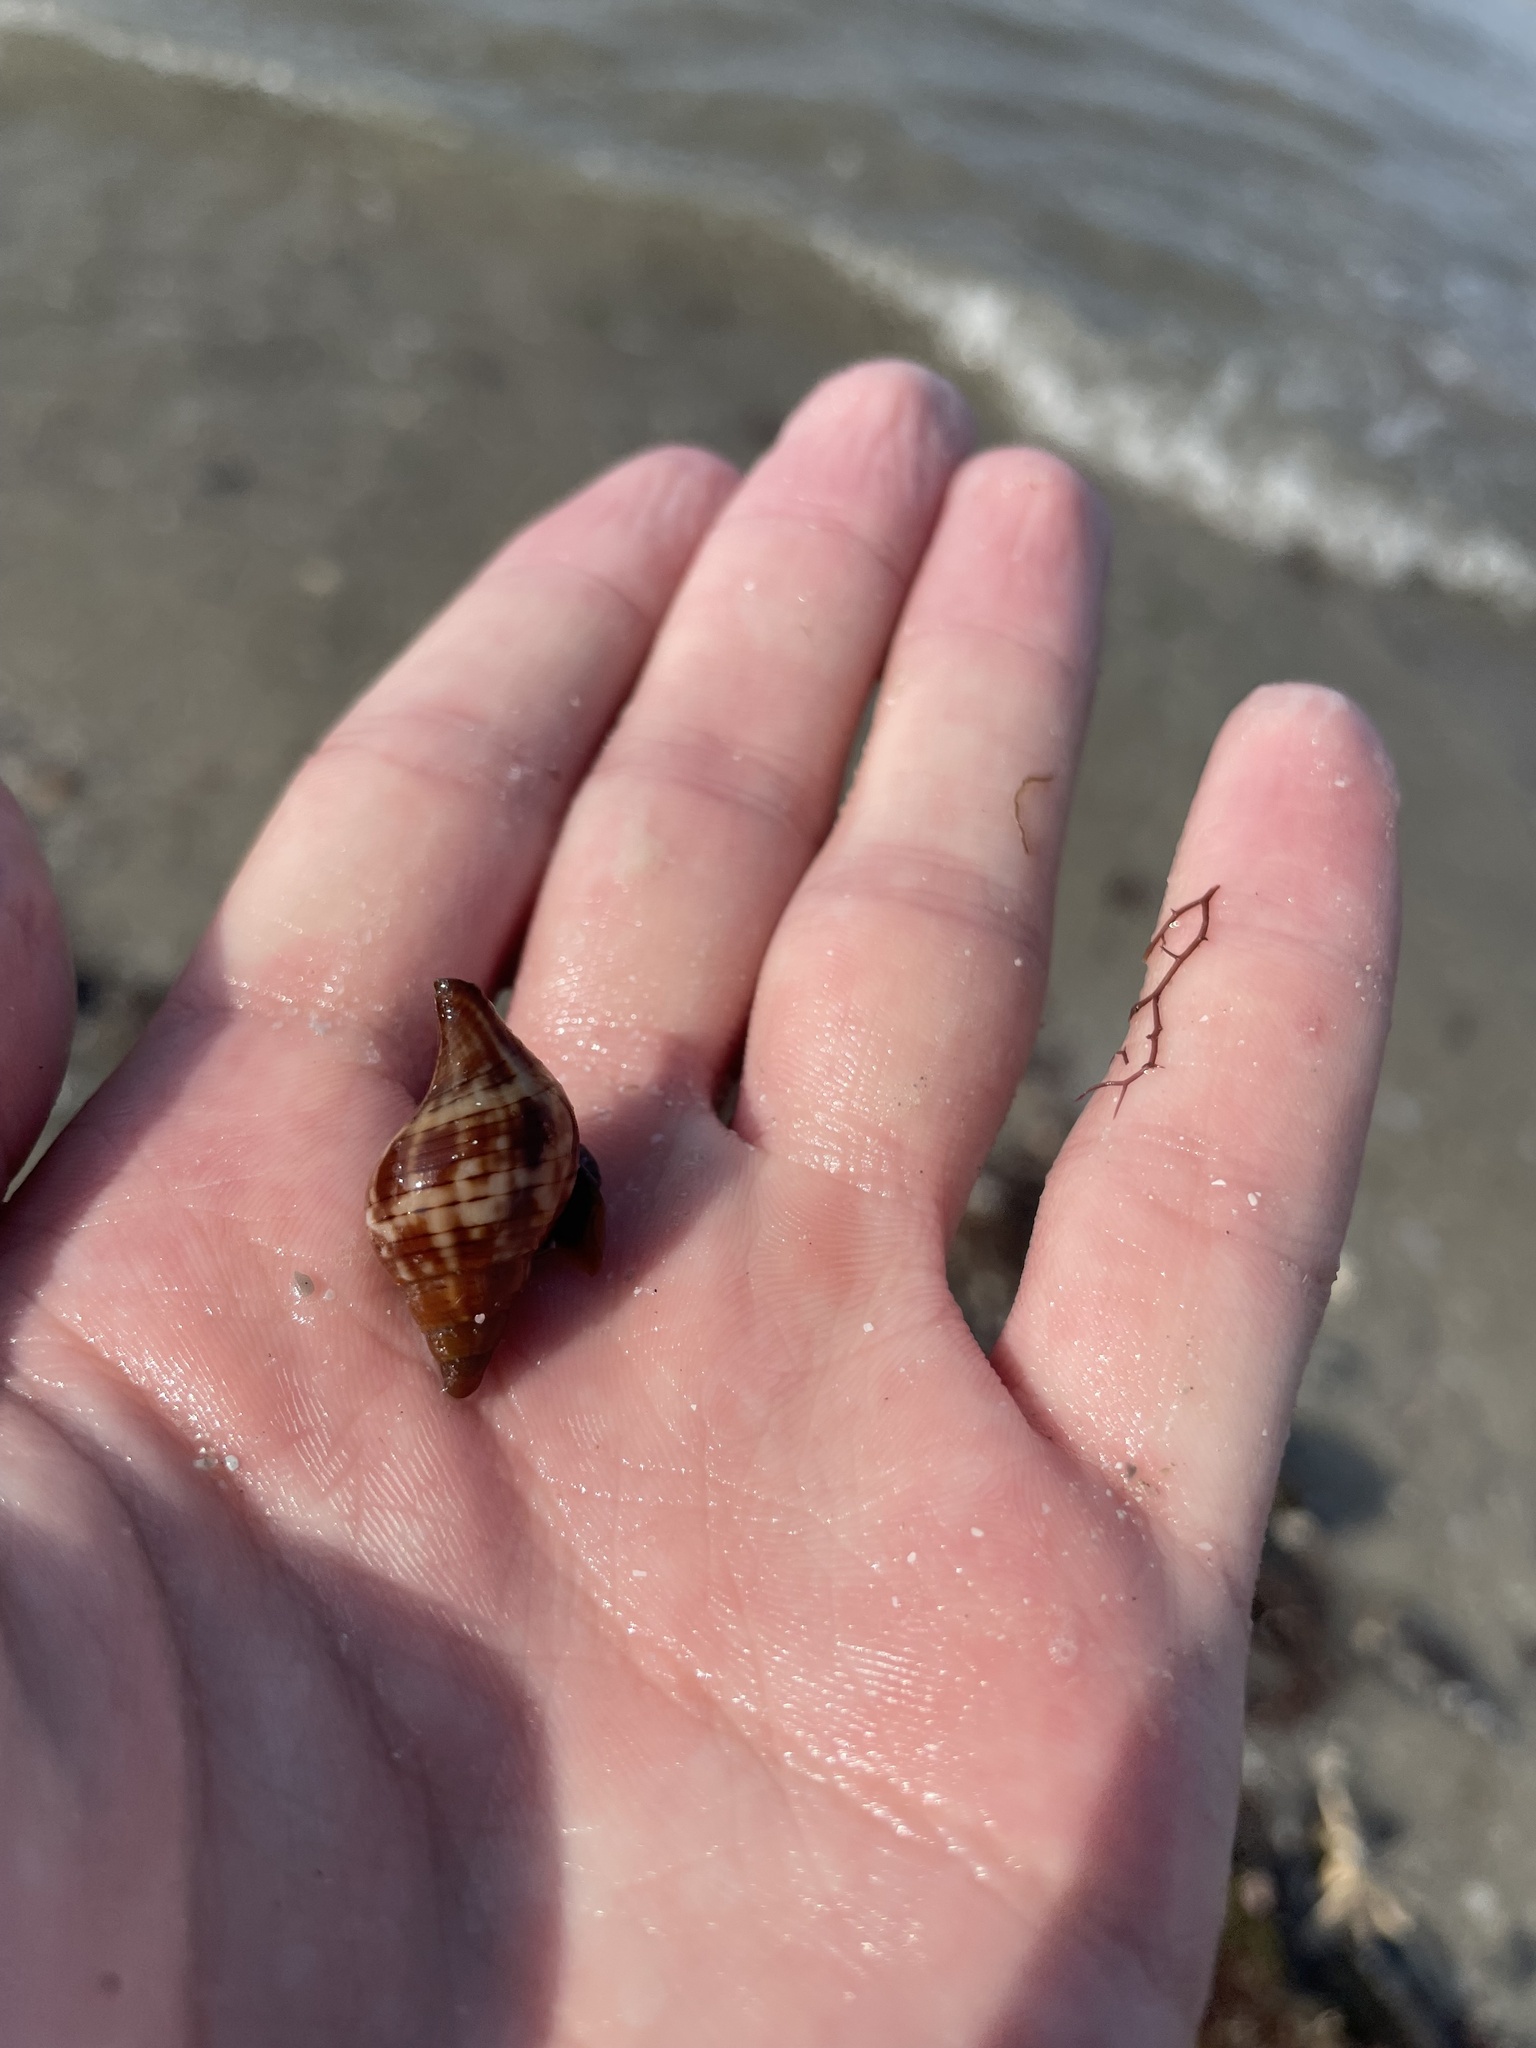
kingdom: Animalia
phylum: Mollusca
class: Gastropoda
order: Neogastropoda
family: Fasciolariidae
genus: Fasciolaria
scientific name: Fasciolaria tulipa
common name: True tulip
